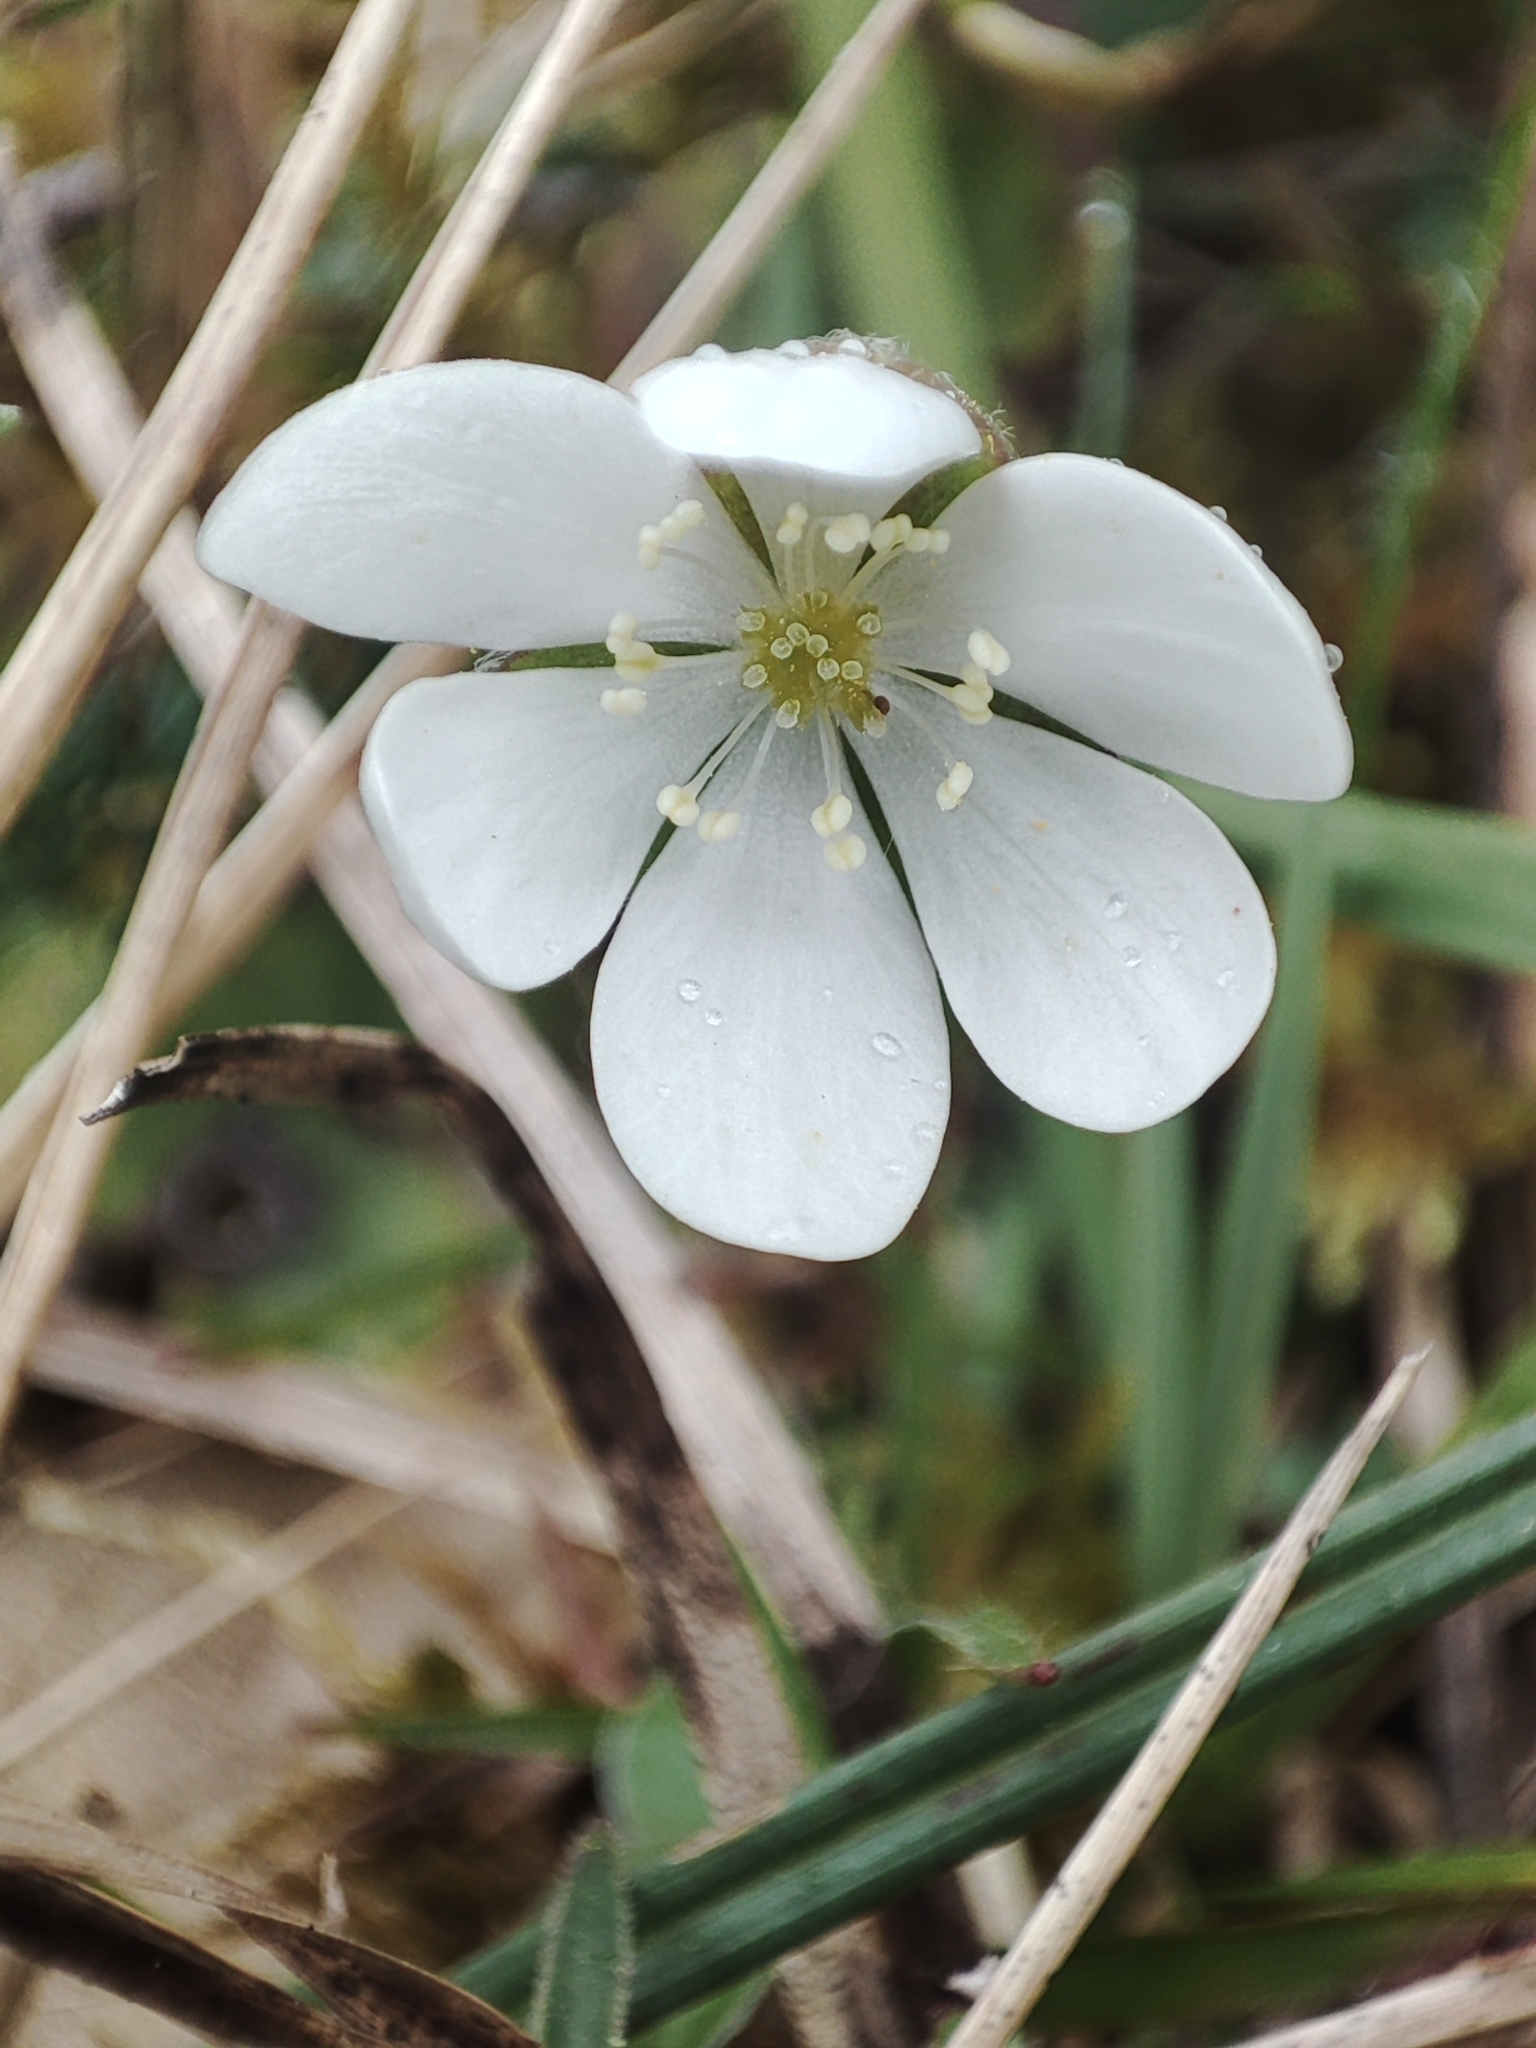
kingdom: Plantae
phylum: Tracheophyta
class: Magnoliopsida
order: Ranunculales
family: Ranunculaceae
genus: Hepatica
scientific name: Hepatica nobilis
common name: Liverleaf
